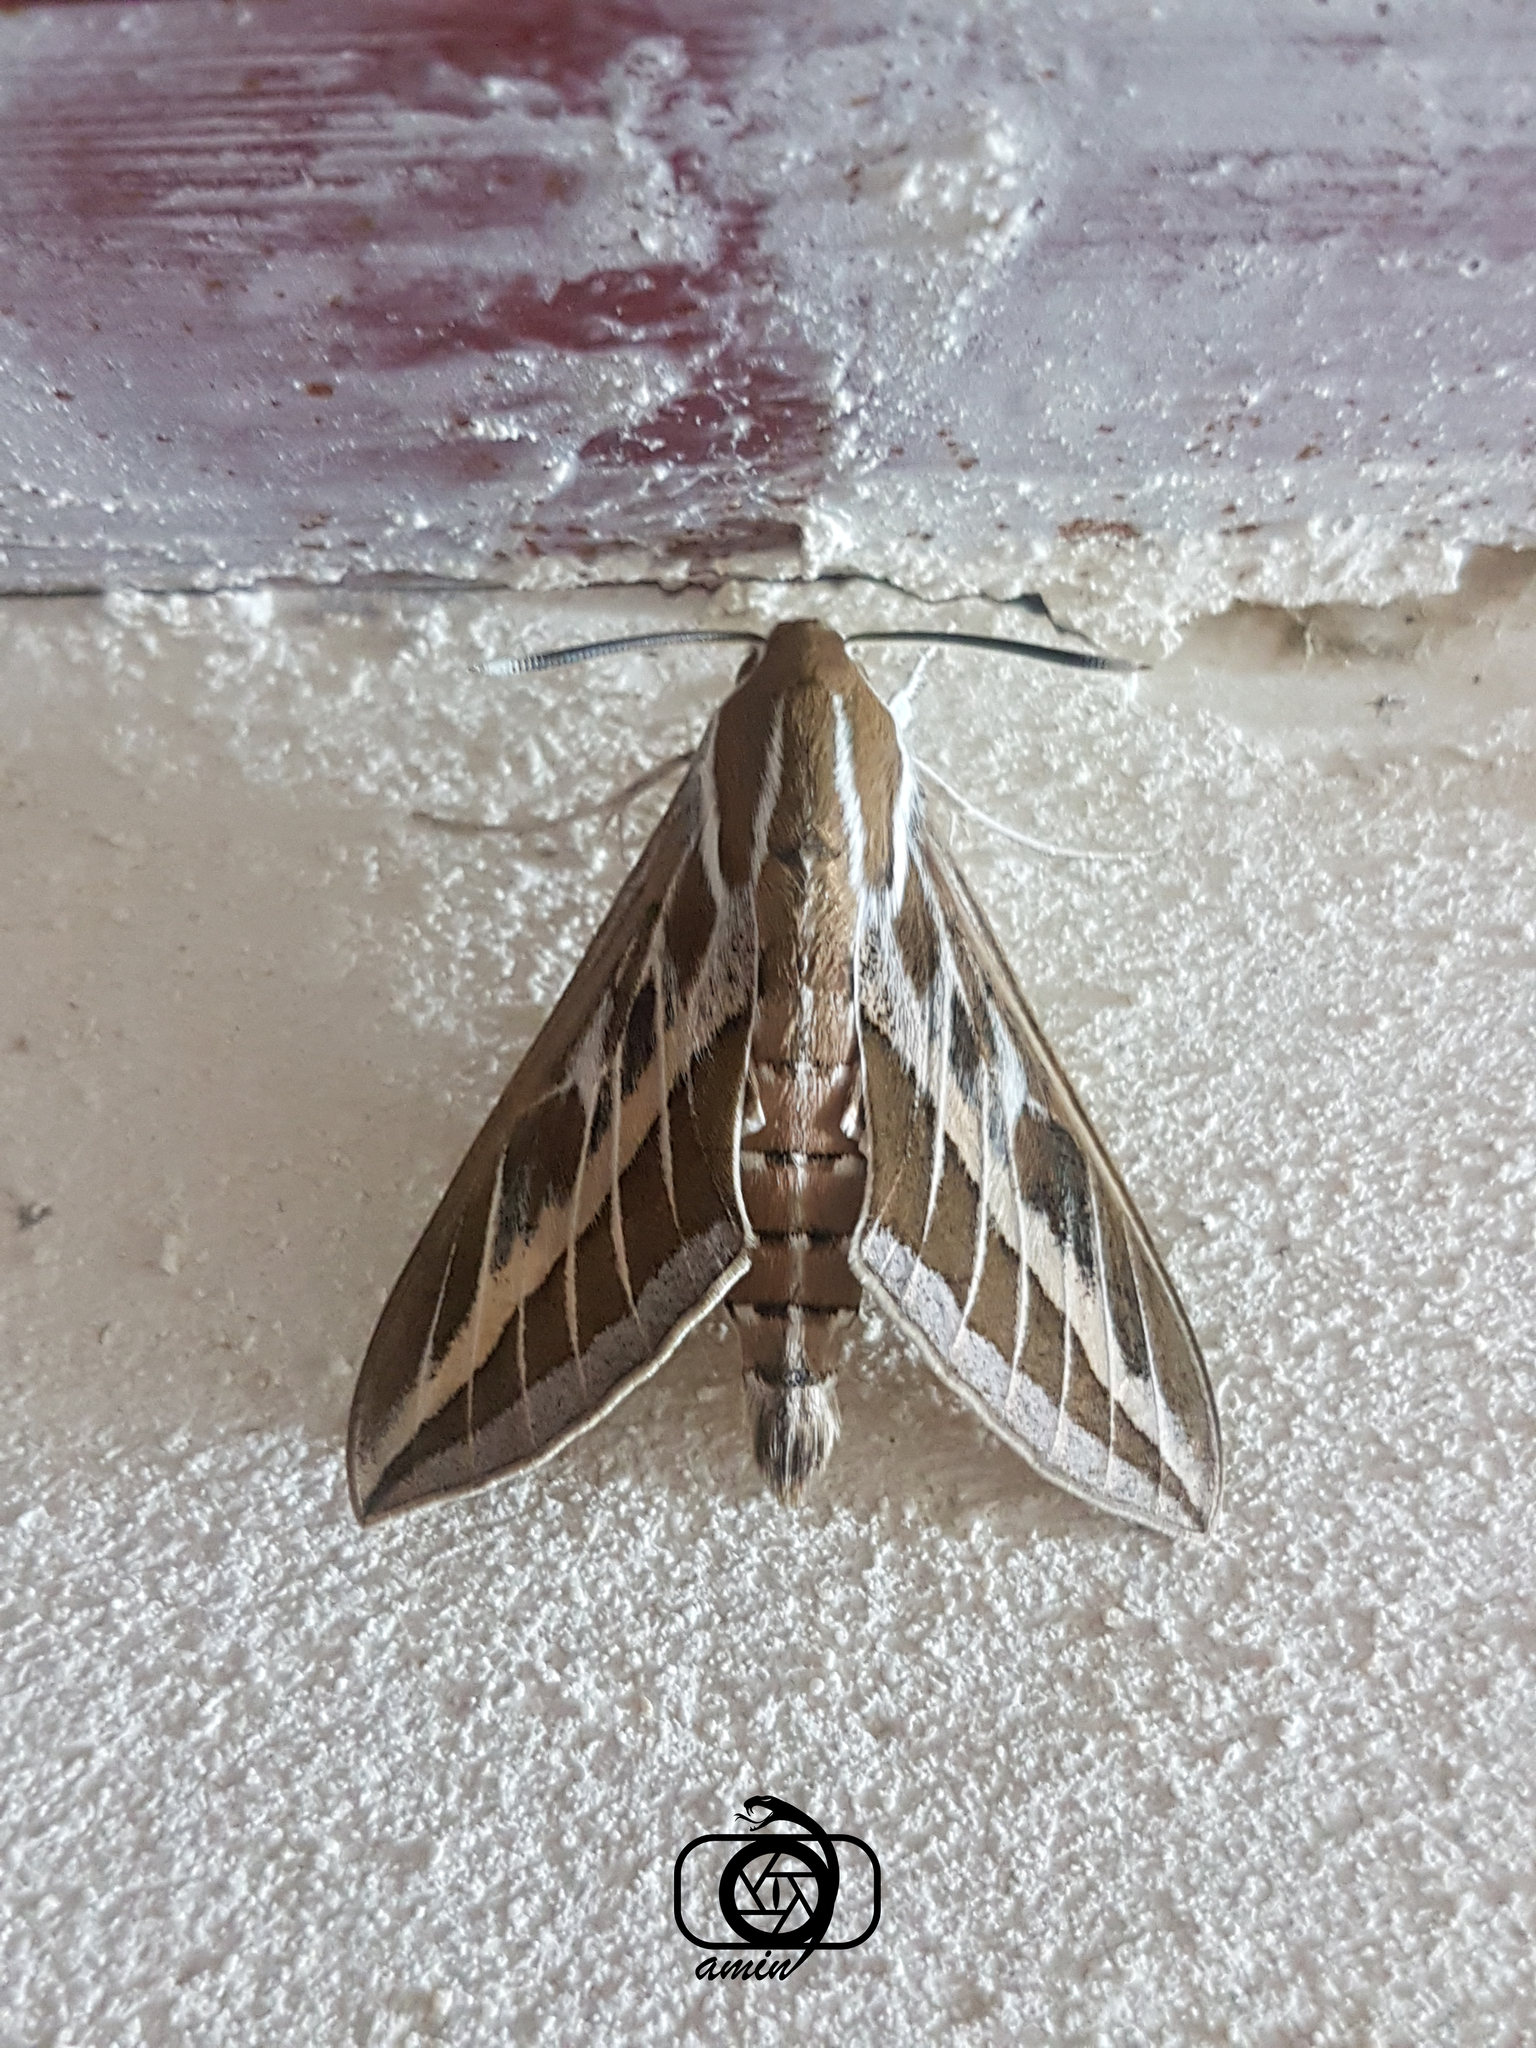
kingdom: Animalia
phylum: Arthropoda
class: Insecta
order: Lepidoptera
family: Sphingidae
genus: Hyles
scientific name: Hyles livornica
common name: Striped hawk-moth
